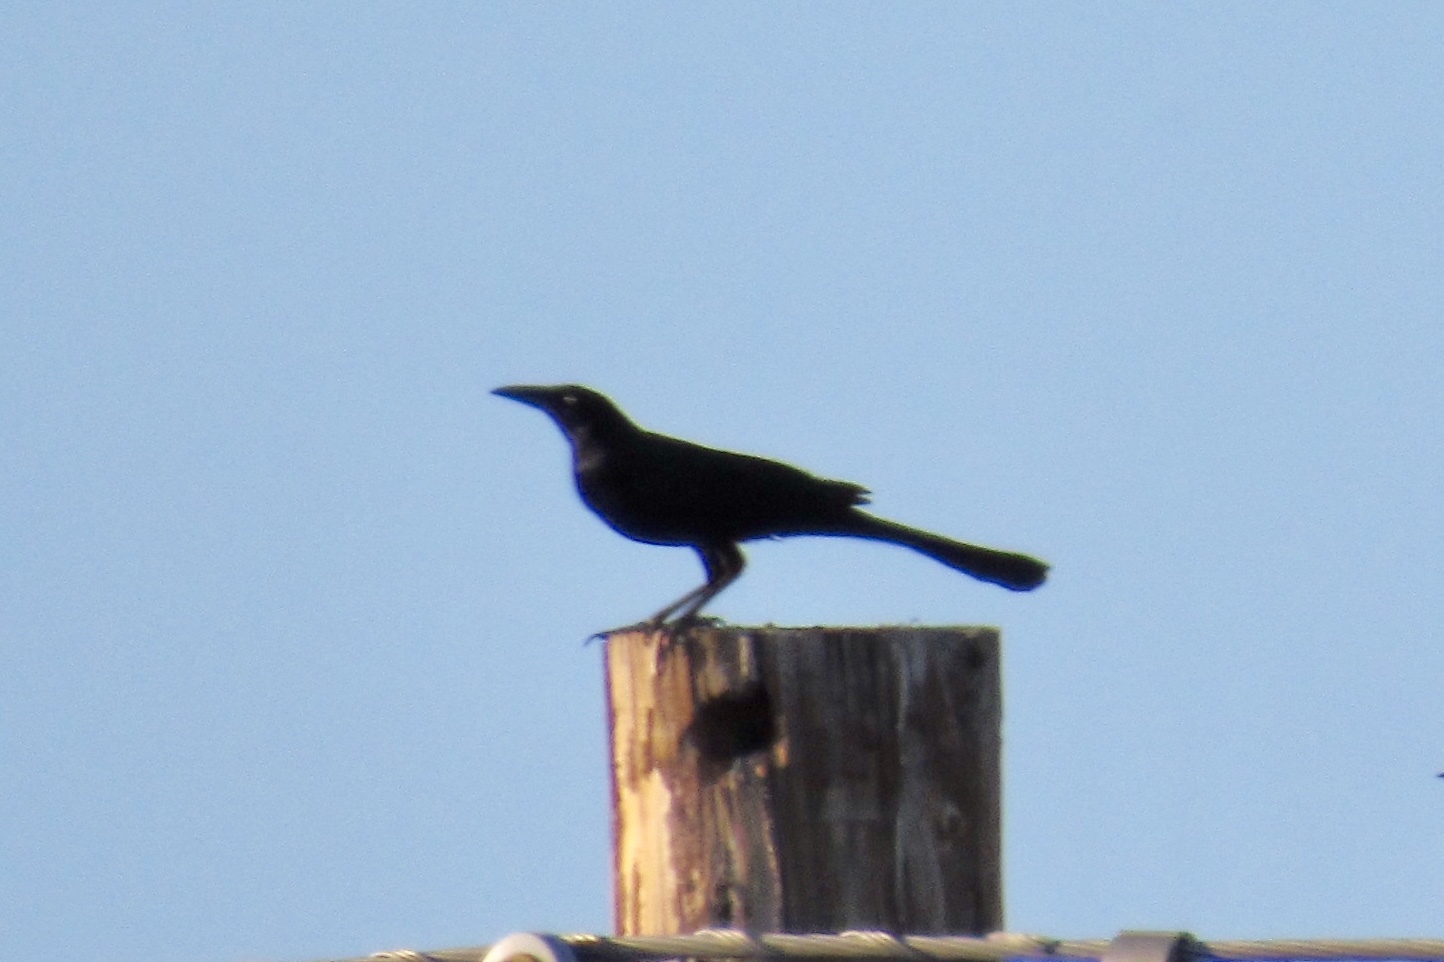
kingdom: Animalia
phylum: Chordata
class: Aves
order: Passeriformes
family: Icteridae
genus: Quiscalus
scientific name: Quiscalus mexicanus
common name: Great-tailed grackle
